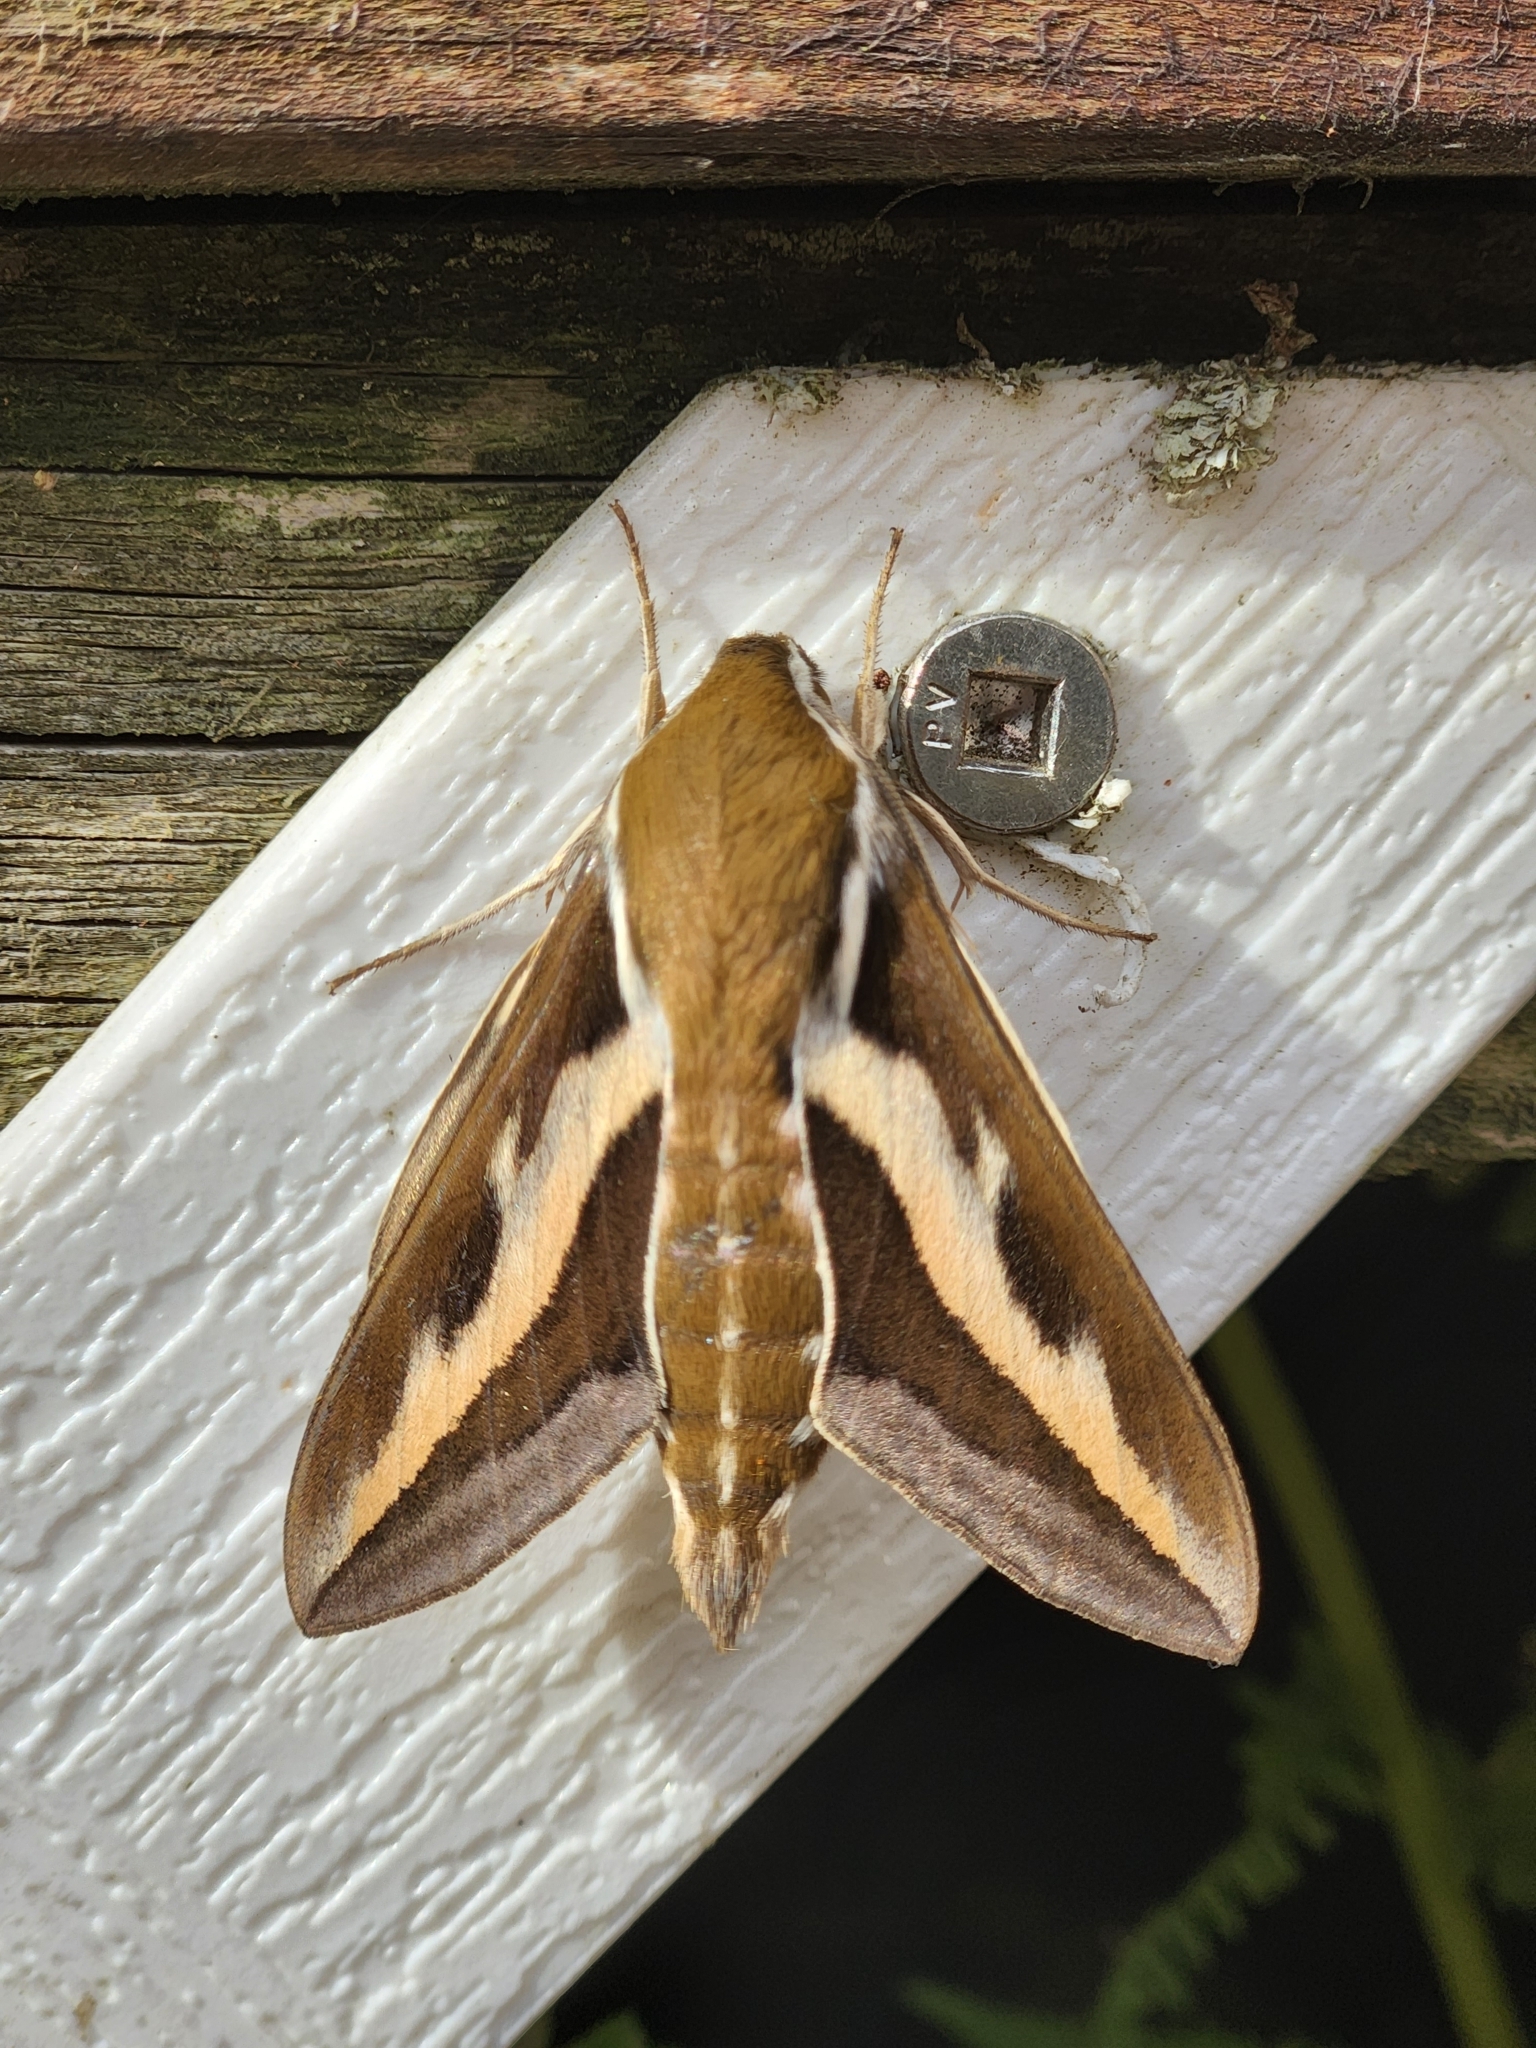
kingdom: Animalia
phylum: Arthropoda
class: Insecta
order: Lepidoptera
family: Sphingidae
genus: Hyles
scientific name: Hyles gallii
